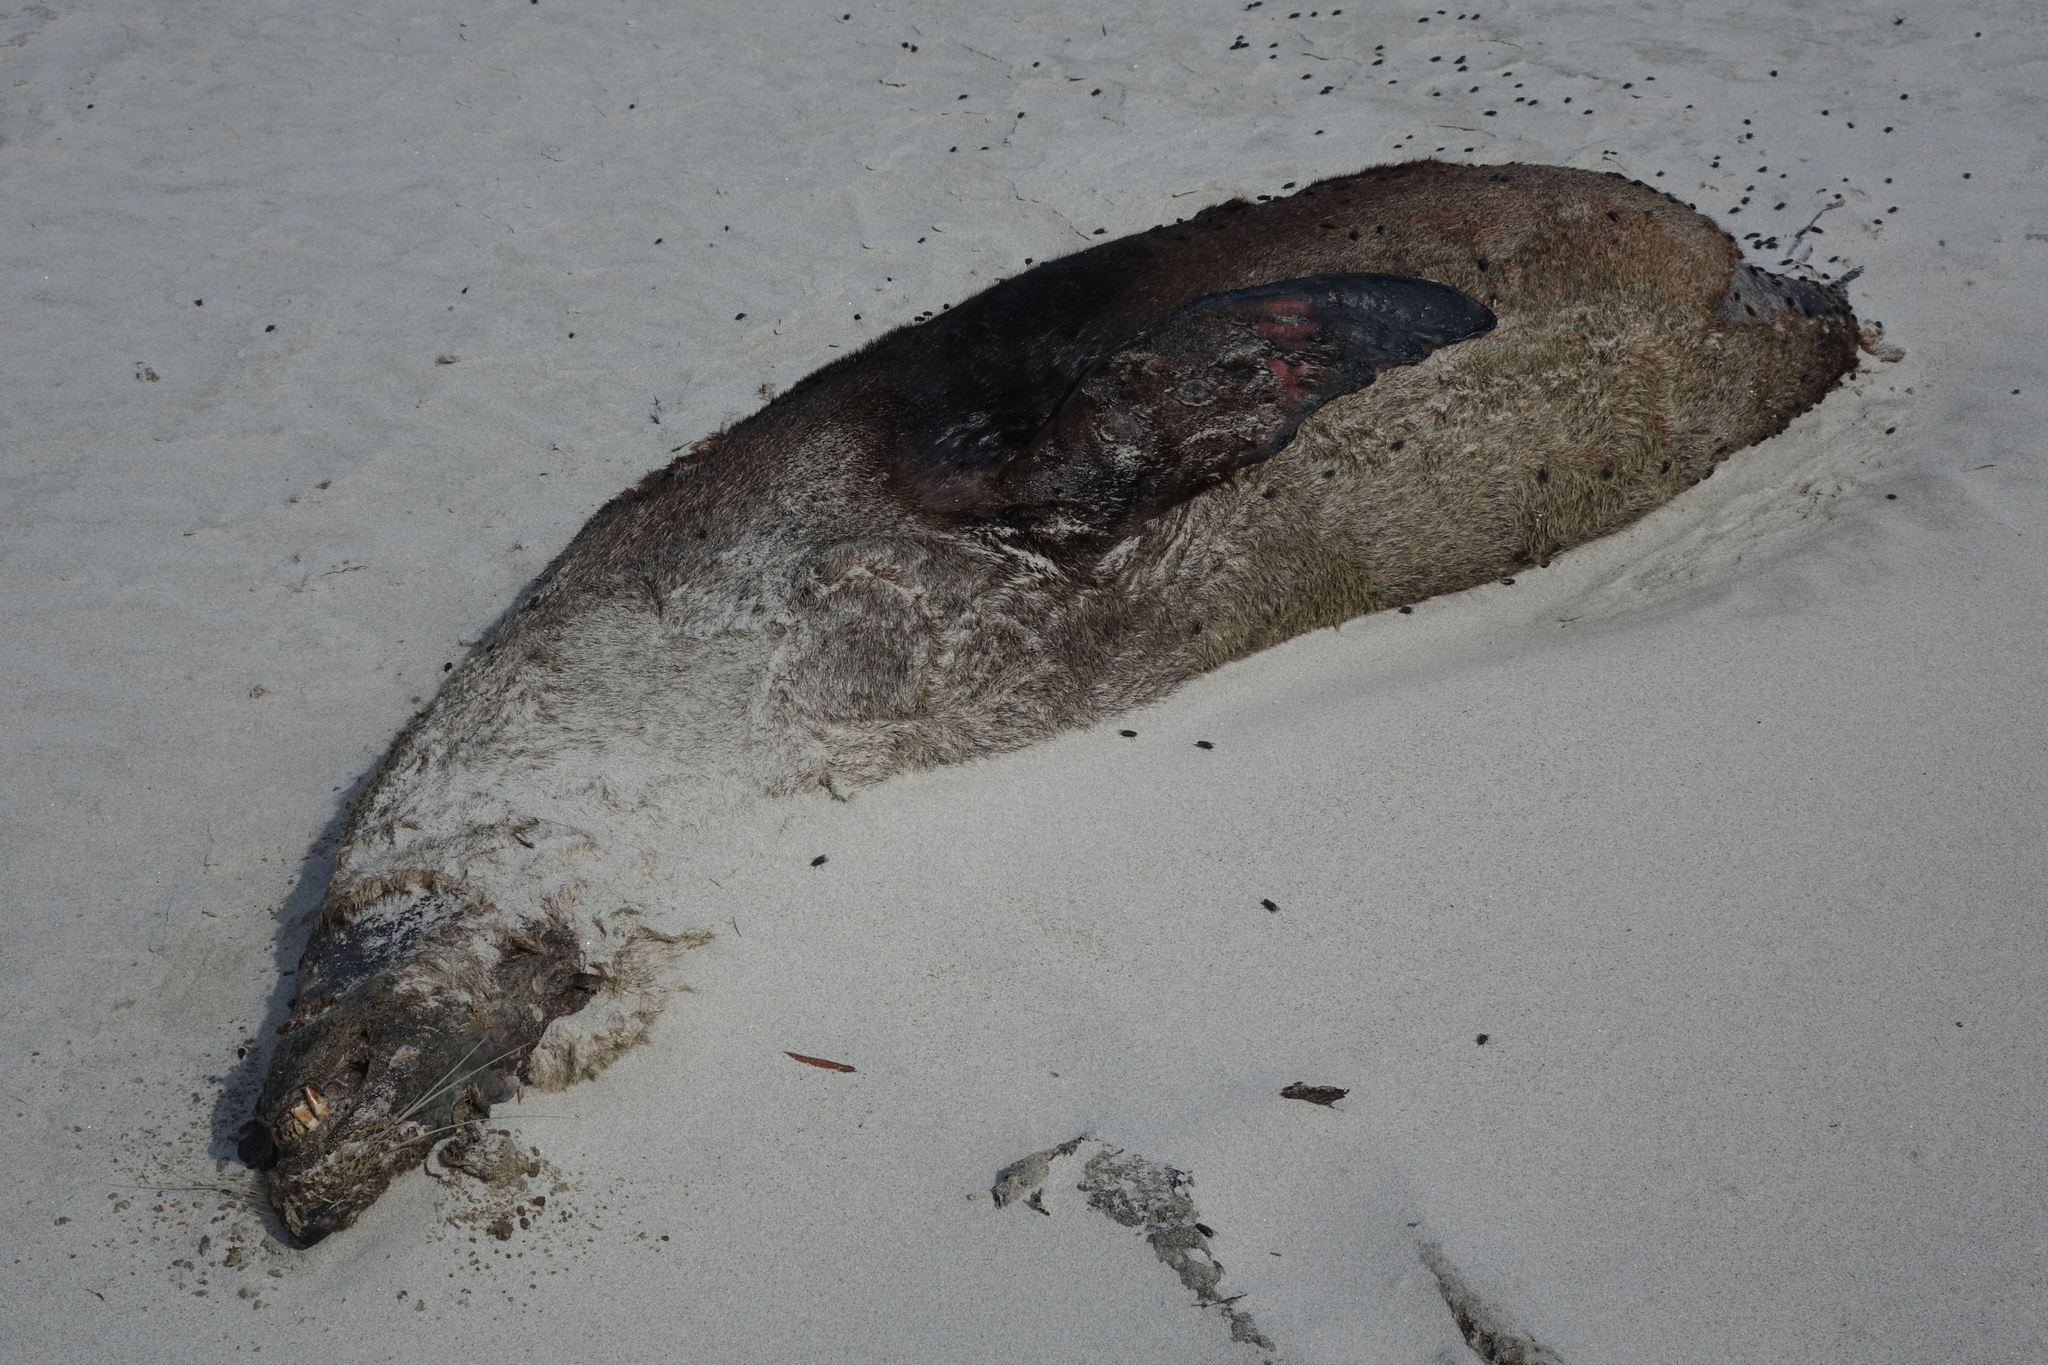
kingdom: Animalia
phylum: Chordata
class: Mammalia
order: Carnivora
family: Otariidae
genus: Arctocephalus
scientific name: Arctocephalus forsteri
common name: New zealand fur seal
